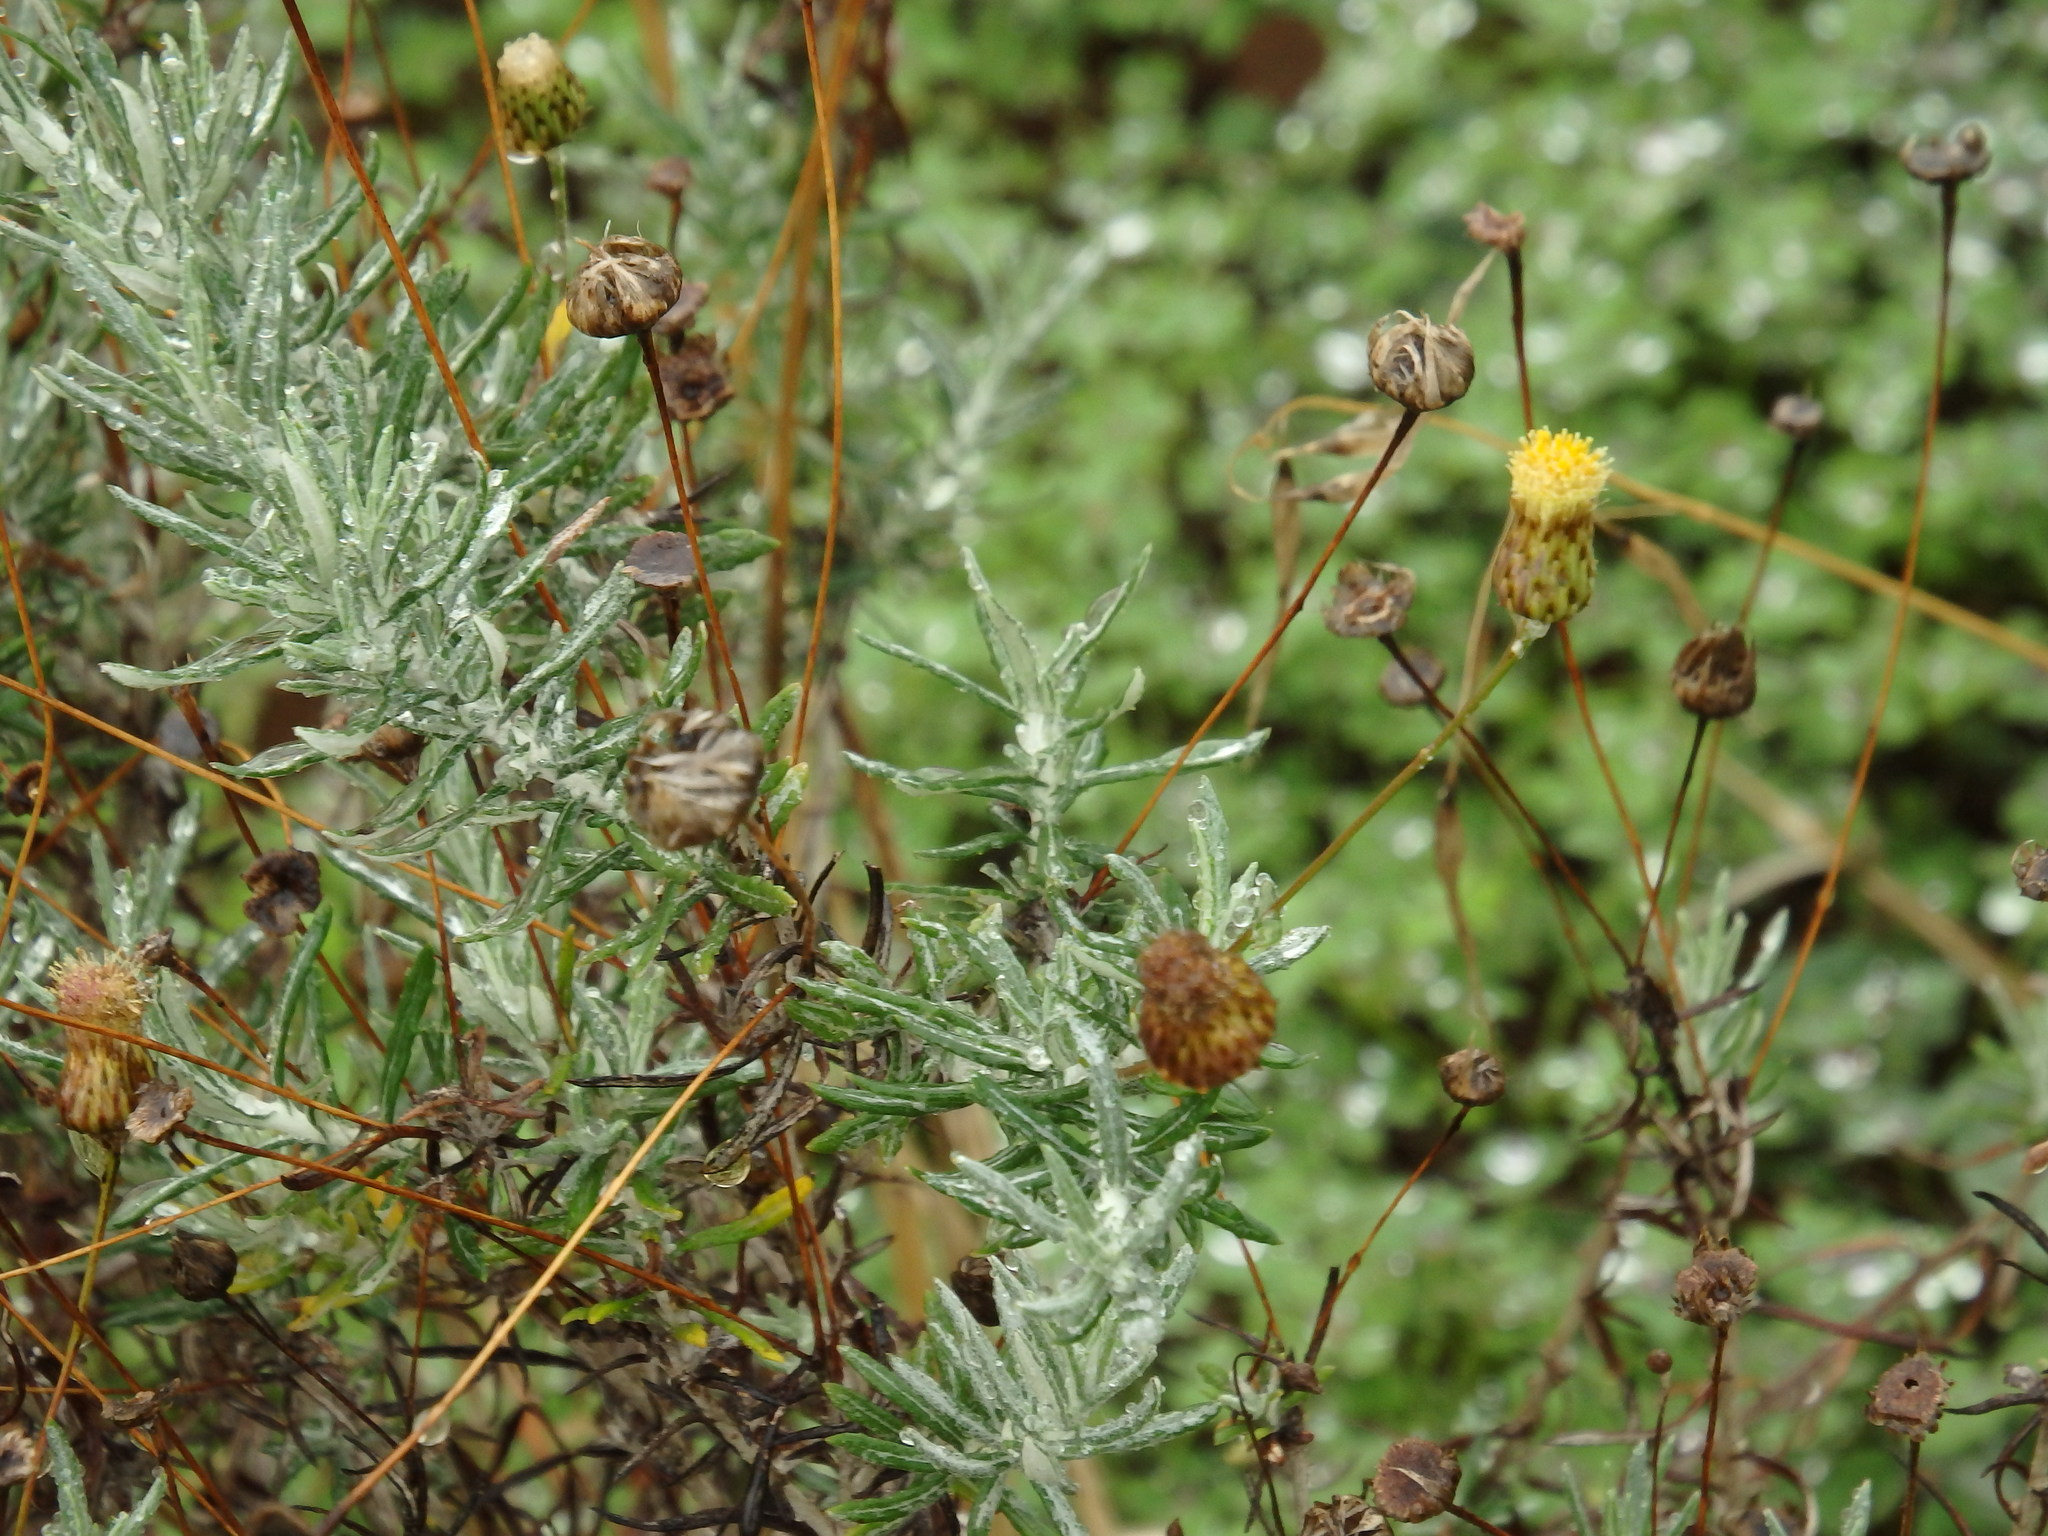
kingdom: Plantae
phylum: Tracheophyta
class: Magnoliopsida
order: Asterales
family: Asteraceae
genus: Phagnalon
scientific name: Phagnalon saxatile
